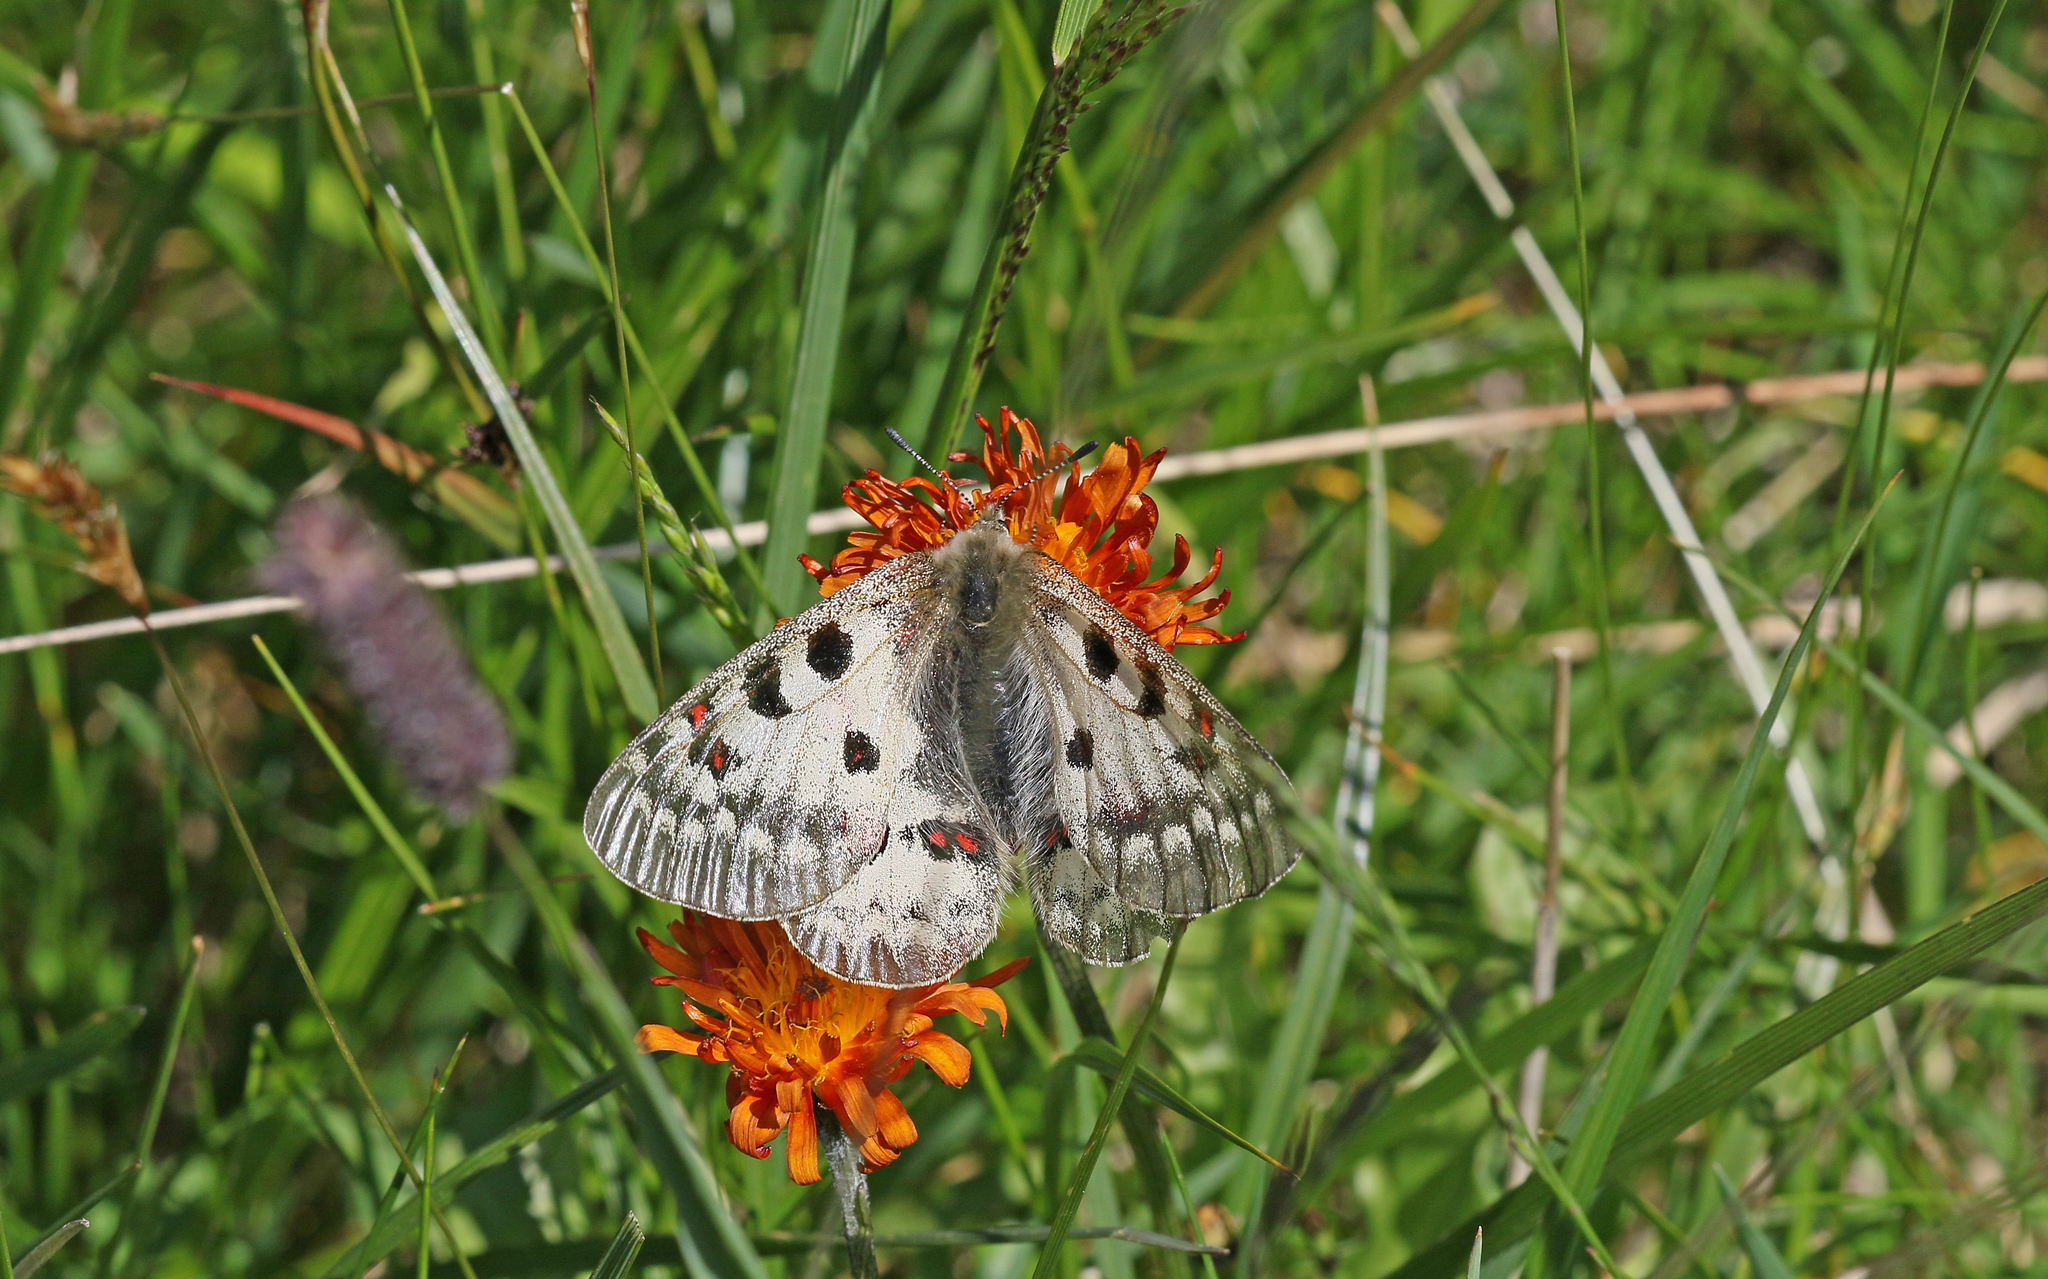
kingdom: Animalia
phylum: Arthropoda
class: Insecta
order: Lepidoptera
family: Papilionidae
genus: Parnassius
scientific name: Parnassius phoebus
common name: Small apollo
